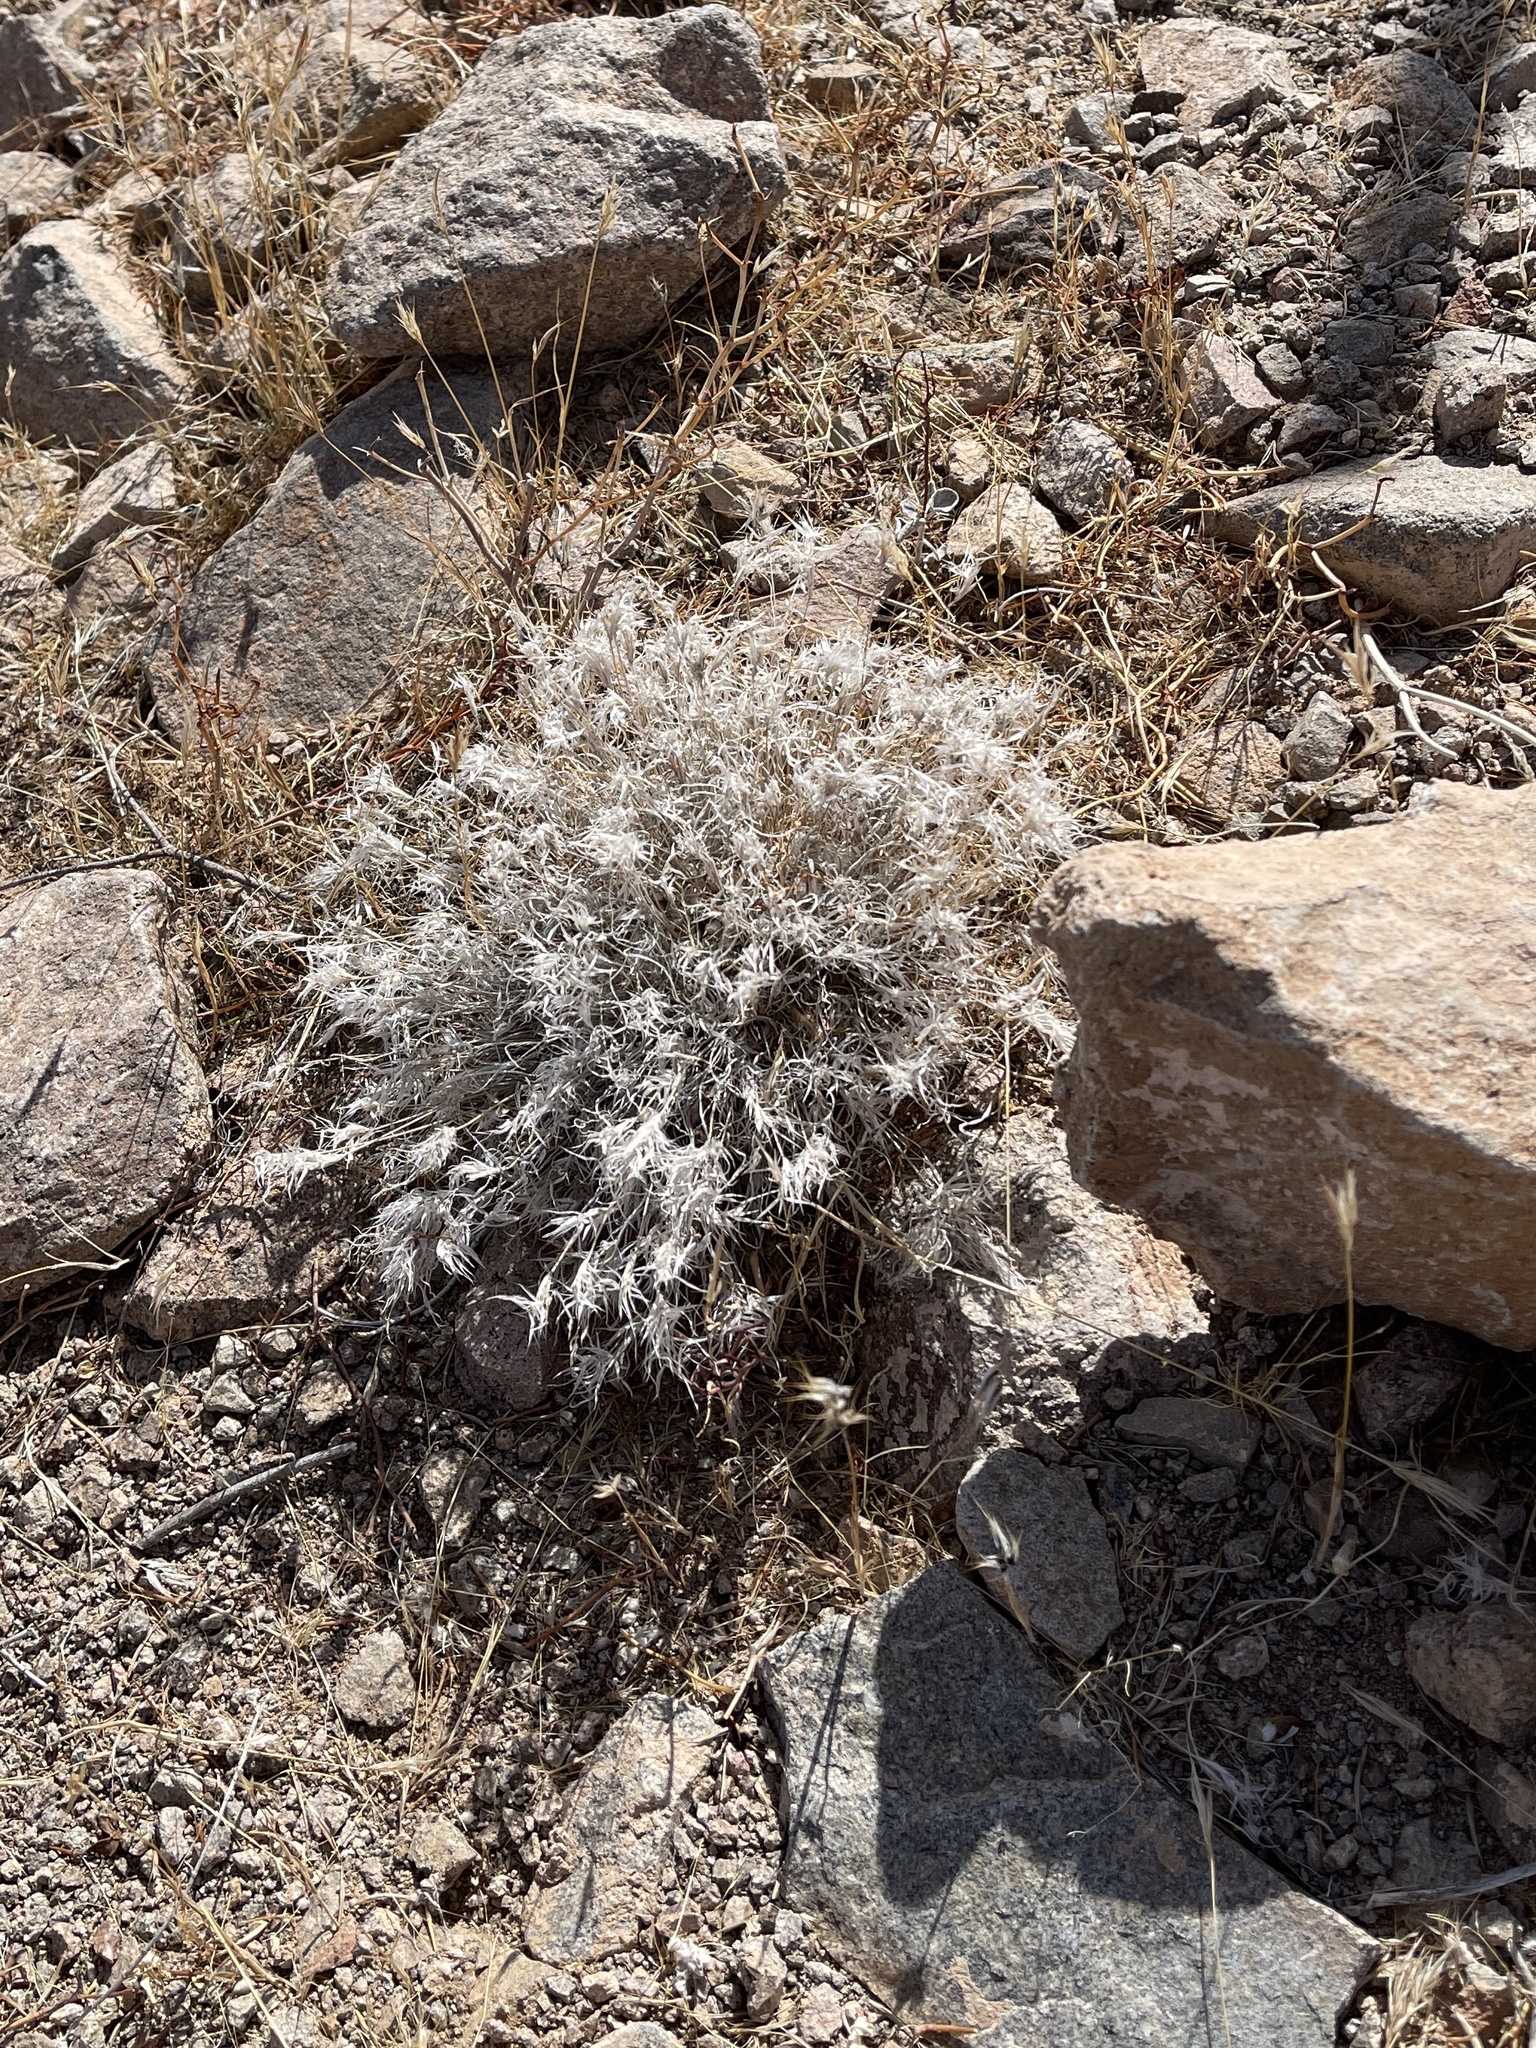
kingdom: Plantae
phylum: Tracheophyta
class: Liliopsida
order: Poales
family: Poaceae
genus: Dasyochloa
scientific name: Dasyochloa pulchella
